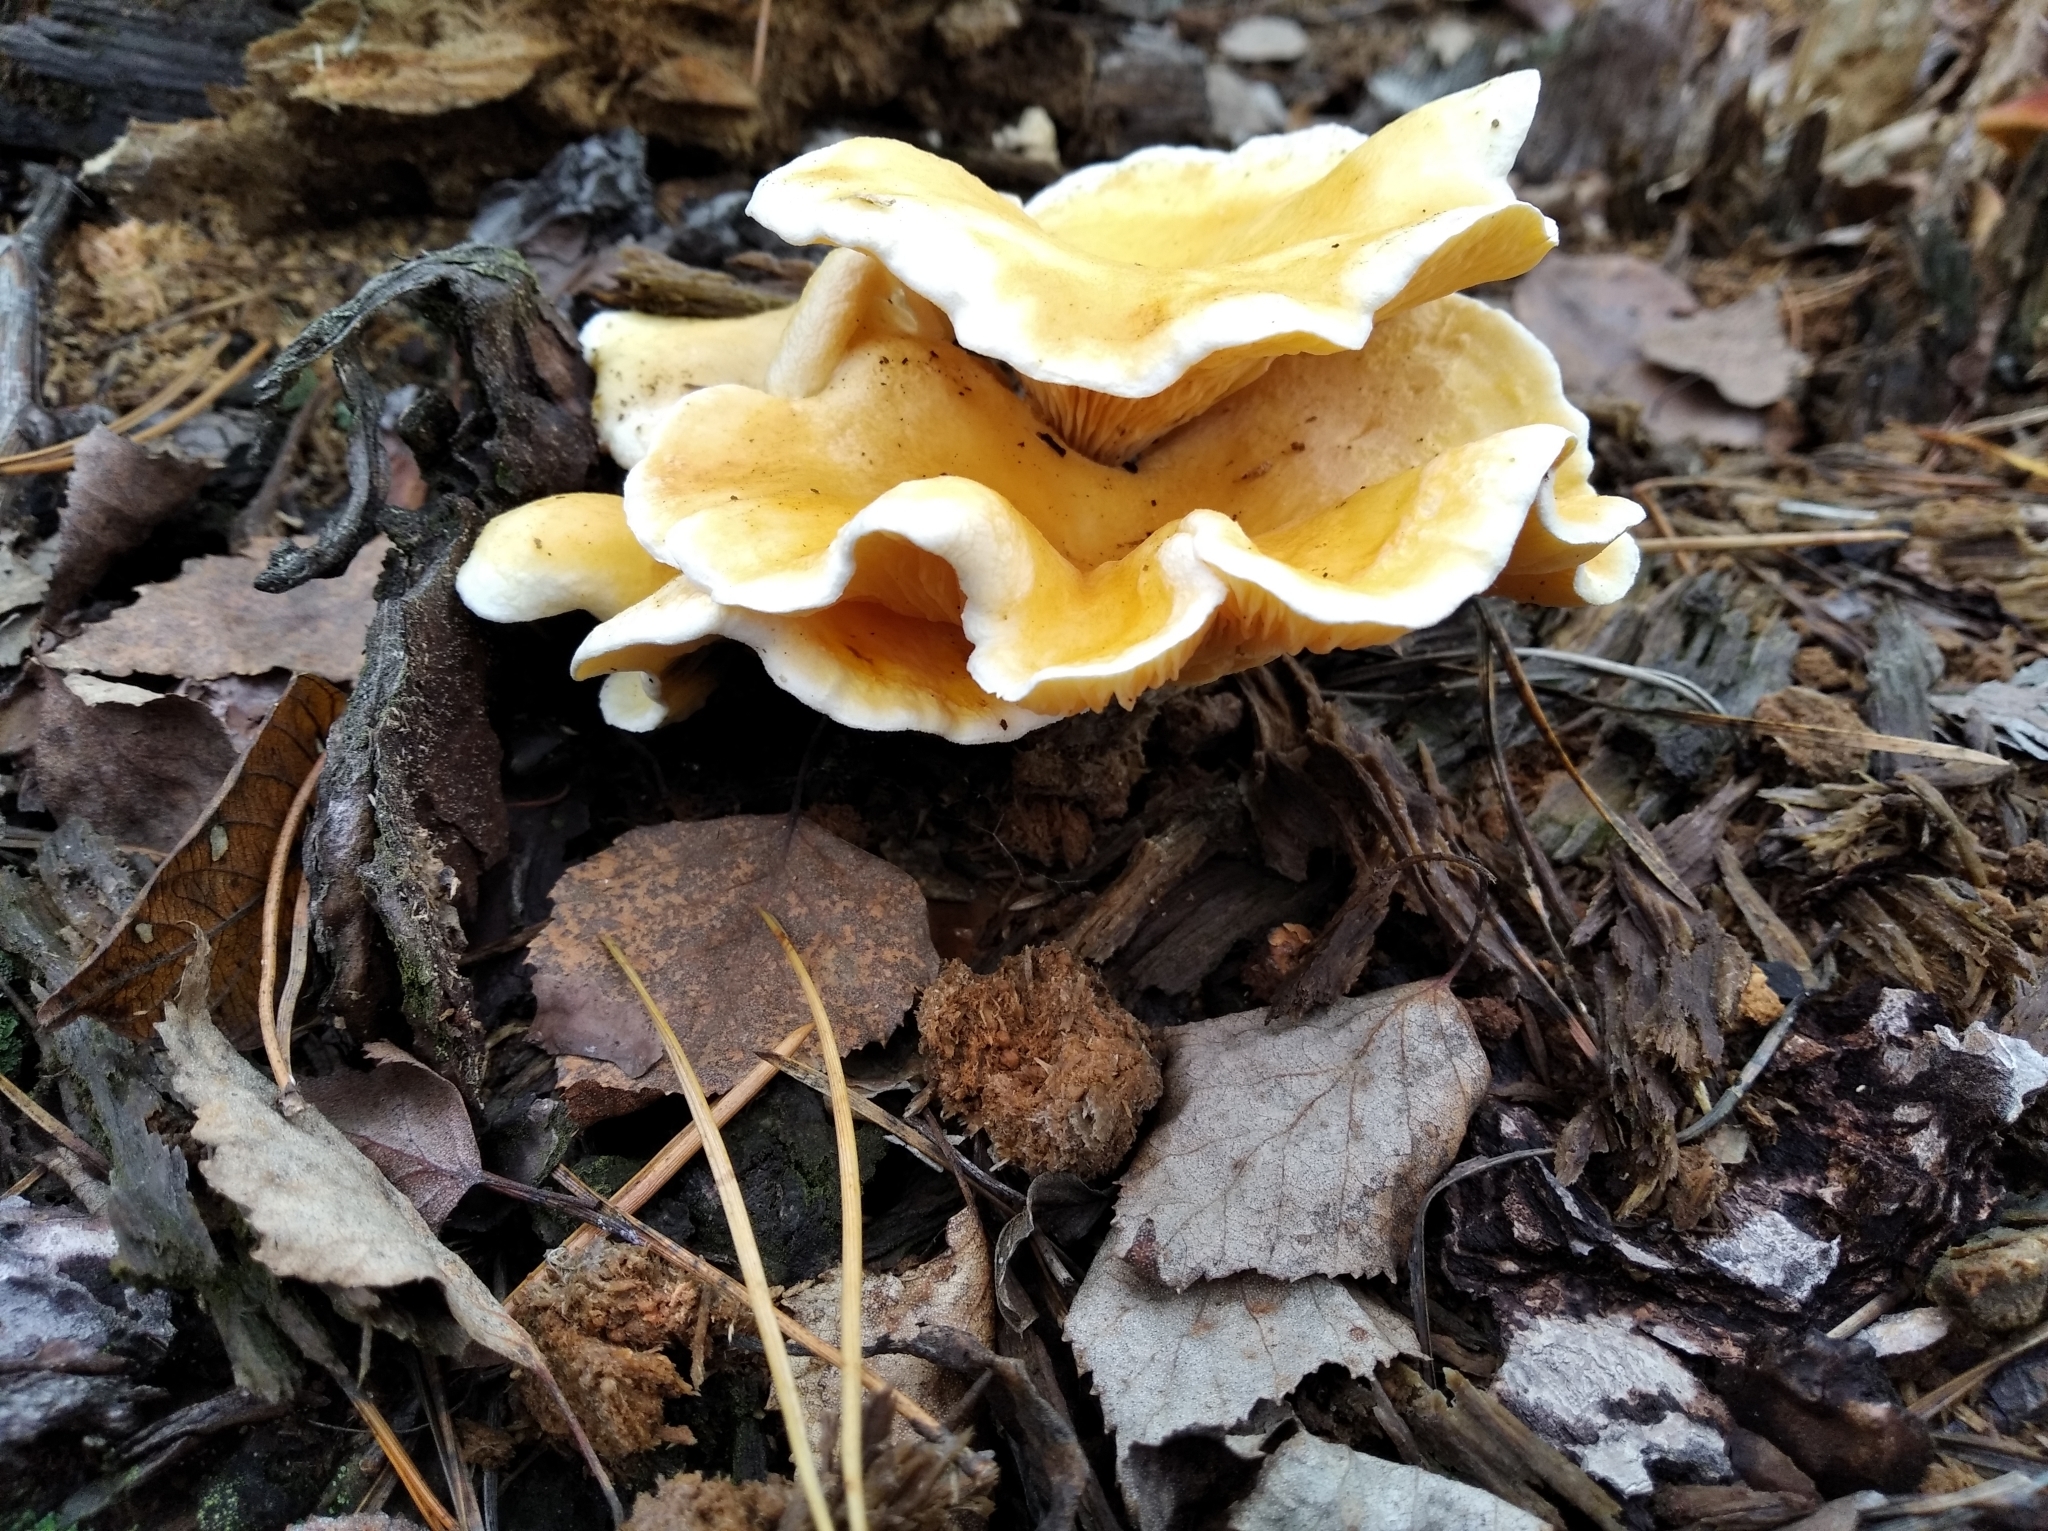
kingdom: Fungi
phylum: Basidiomycota
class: Agaricomycetes
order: Boletales
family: Hygrophoropsidaceae
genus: Hygrophoropsis
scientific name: Hygrophoropsis aurantiaca
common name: False chanterelle
